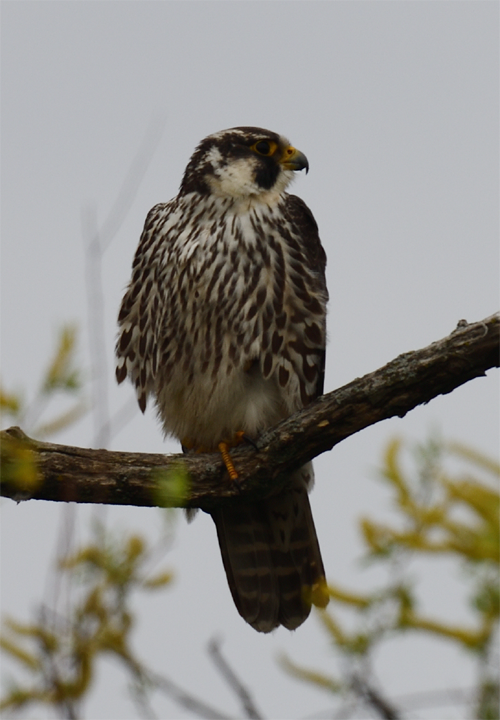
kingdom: Animalia
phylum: Chordata
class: Aves
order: Falconiformes
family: Falconidae
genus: Falco
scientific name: Falco peregrinus
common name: Peregrine falcon
